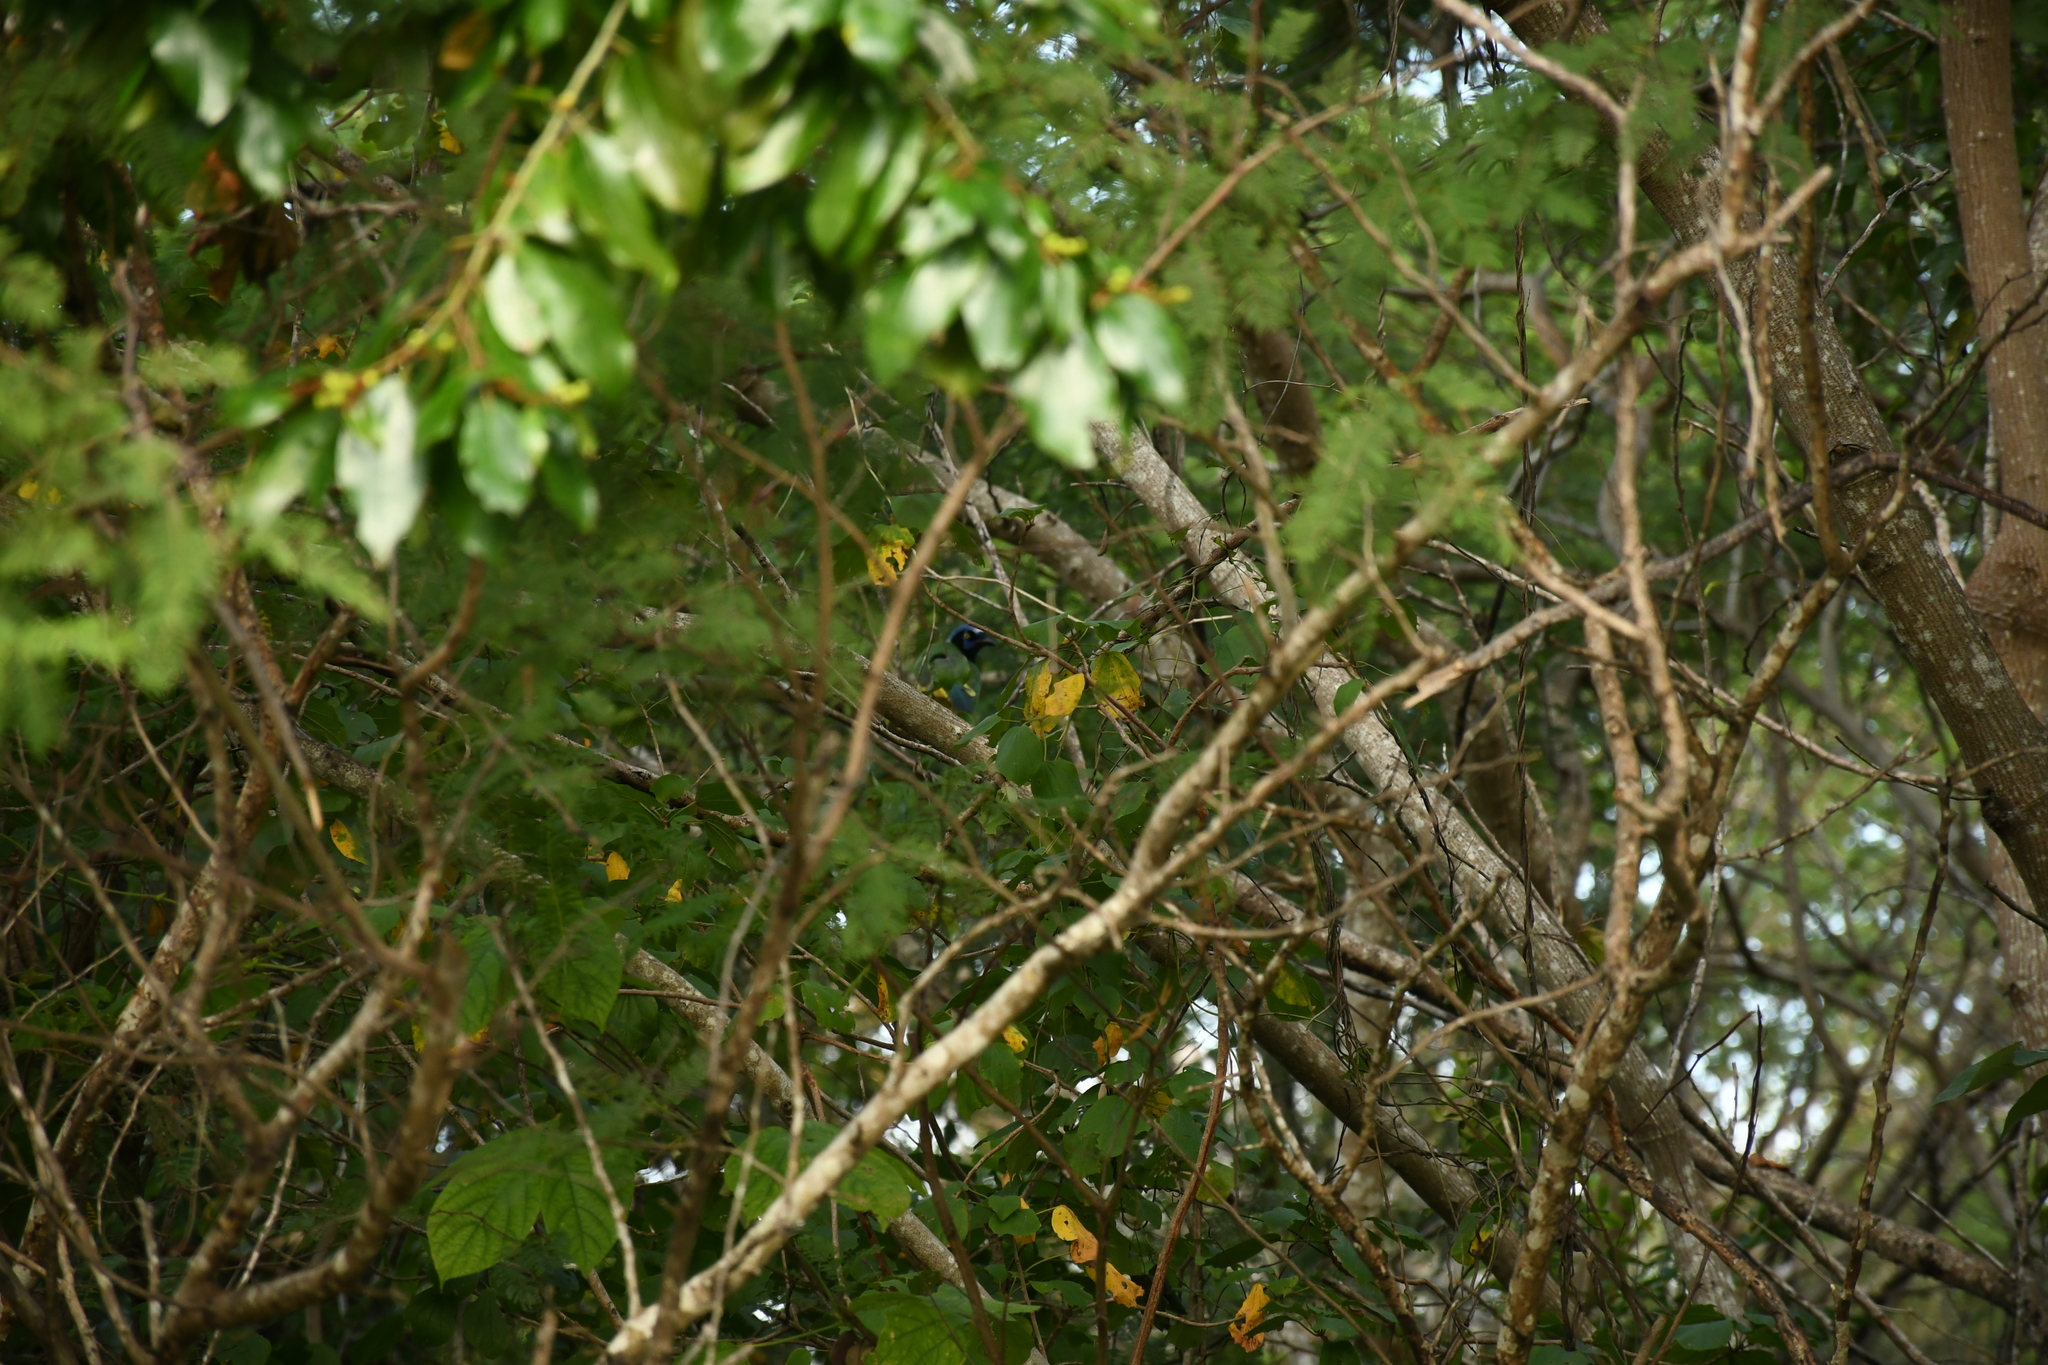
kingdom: Animalia
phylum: Chordata
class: Aves
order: Passeriformes
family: Corvidae
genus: Cyanocorax
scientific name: Cyanocorax yncas
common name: Green jay
